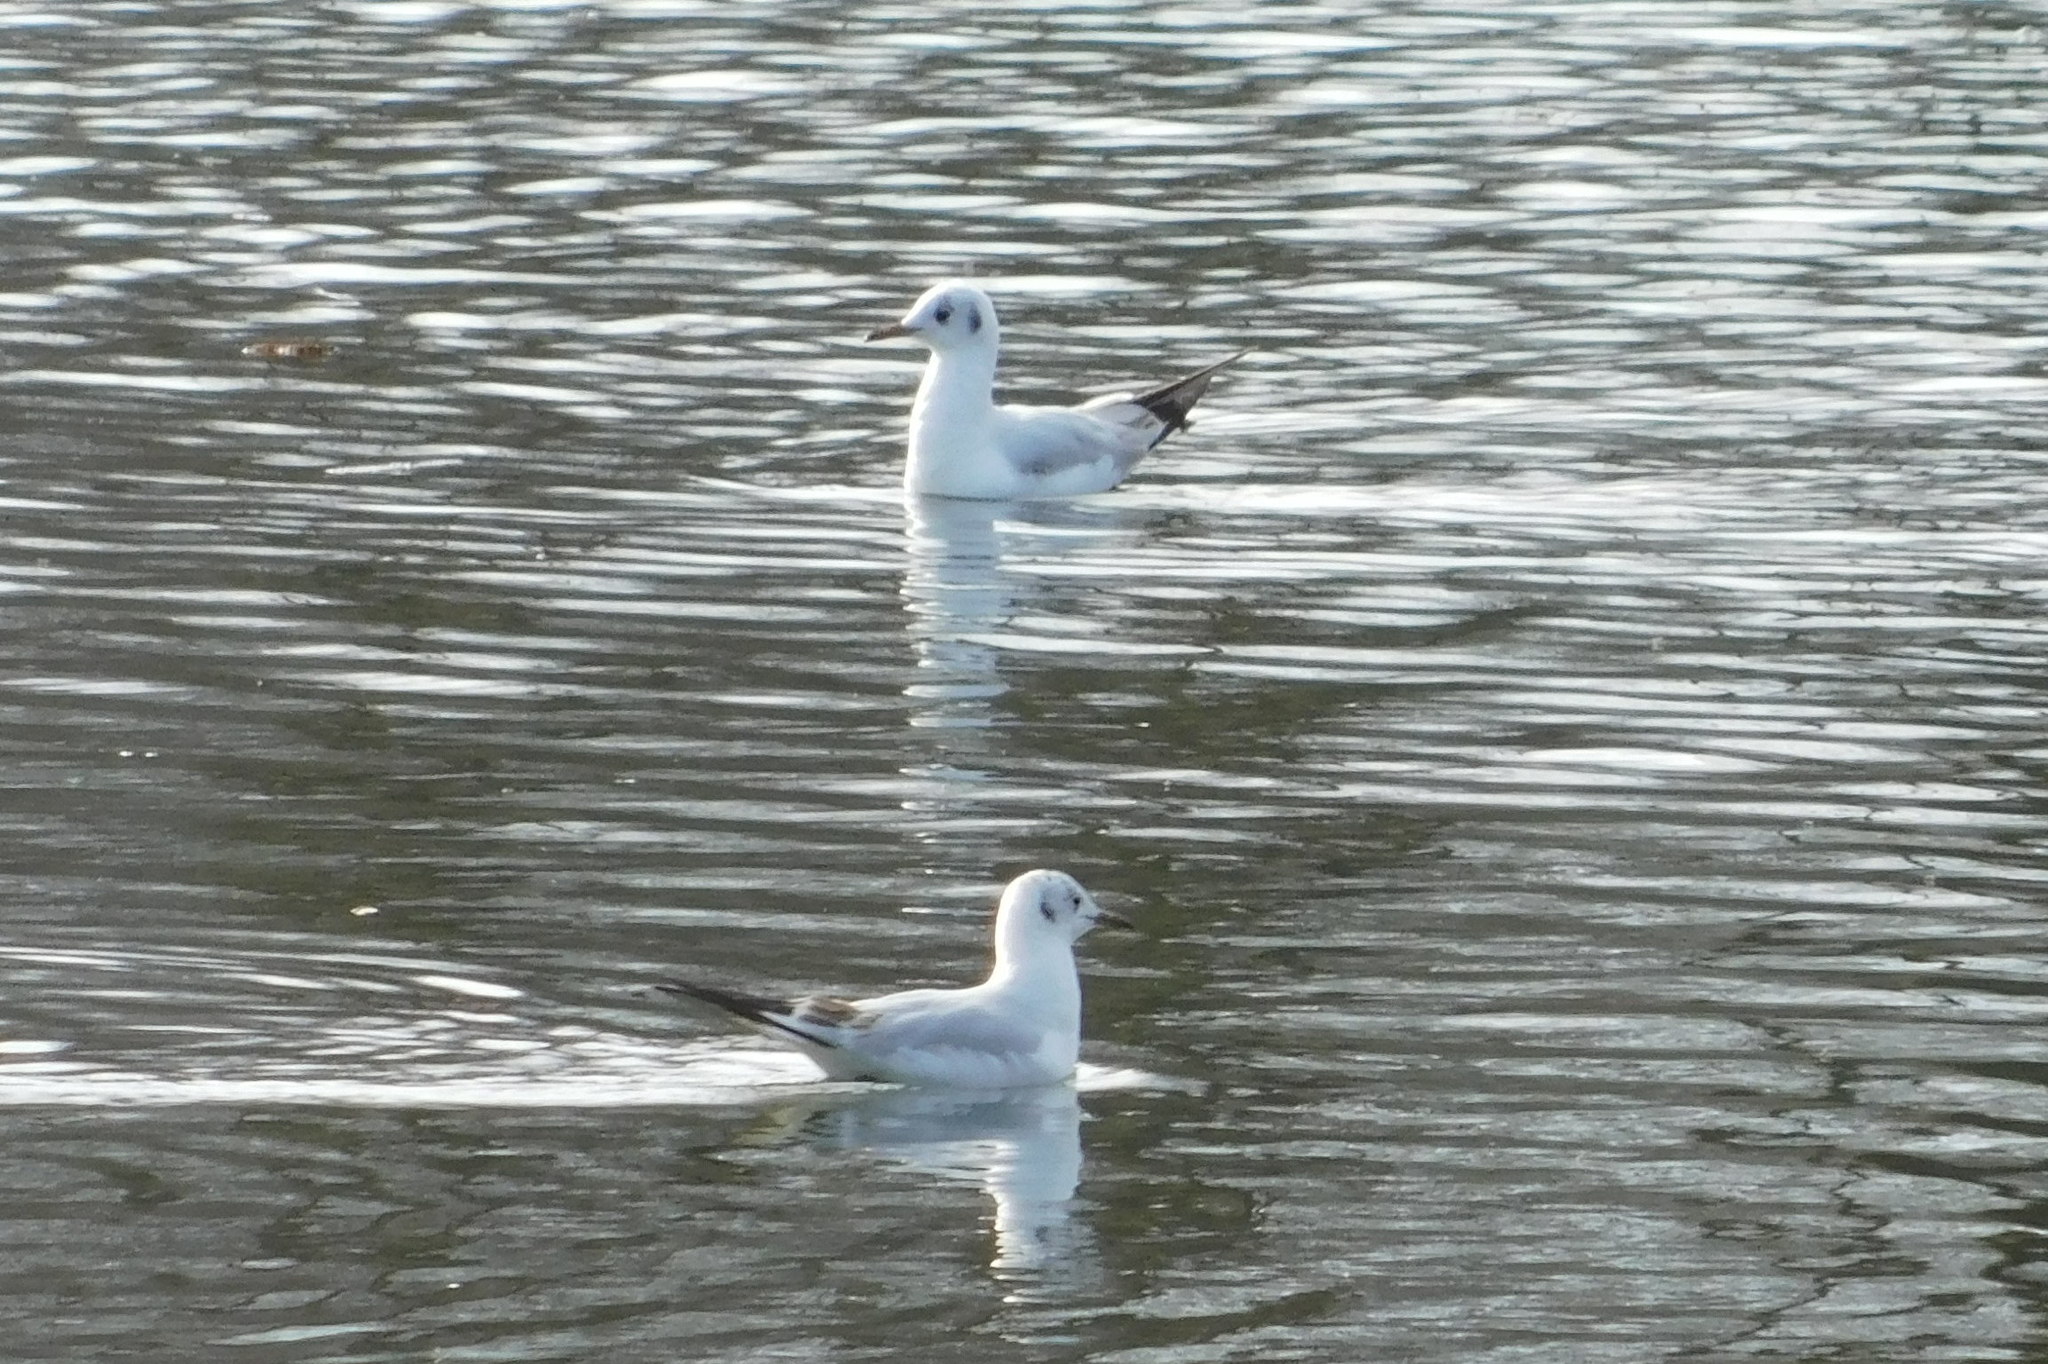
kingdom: Animalia
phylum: Chordata
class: Aves
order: Charadriiformes
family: Laridae
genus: Chroicocephalus
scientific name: Chroicocephalus ridibundus
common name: Black-headed gull
